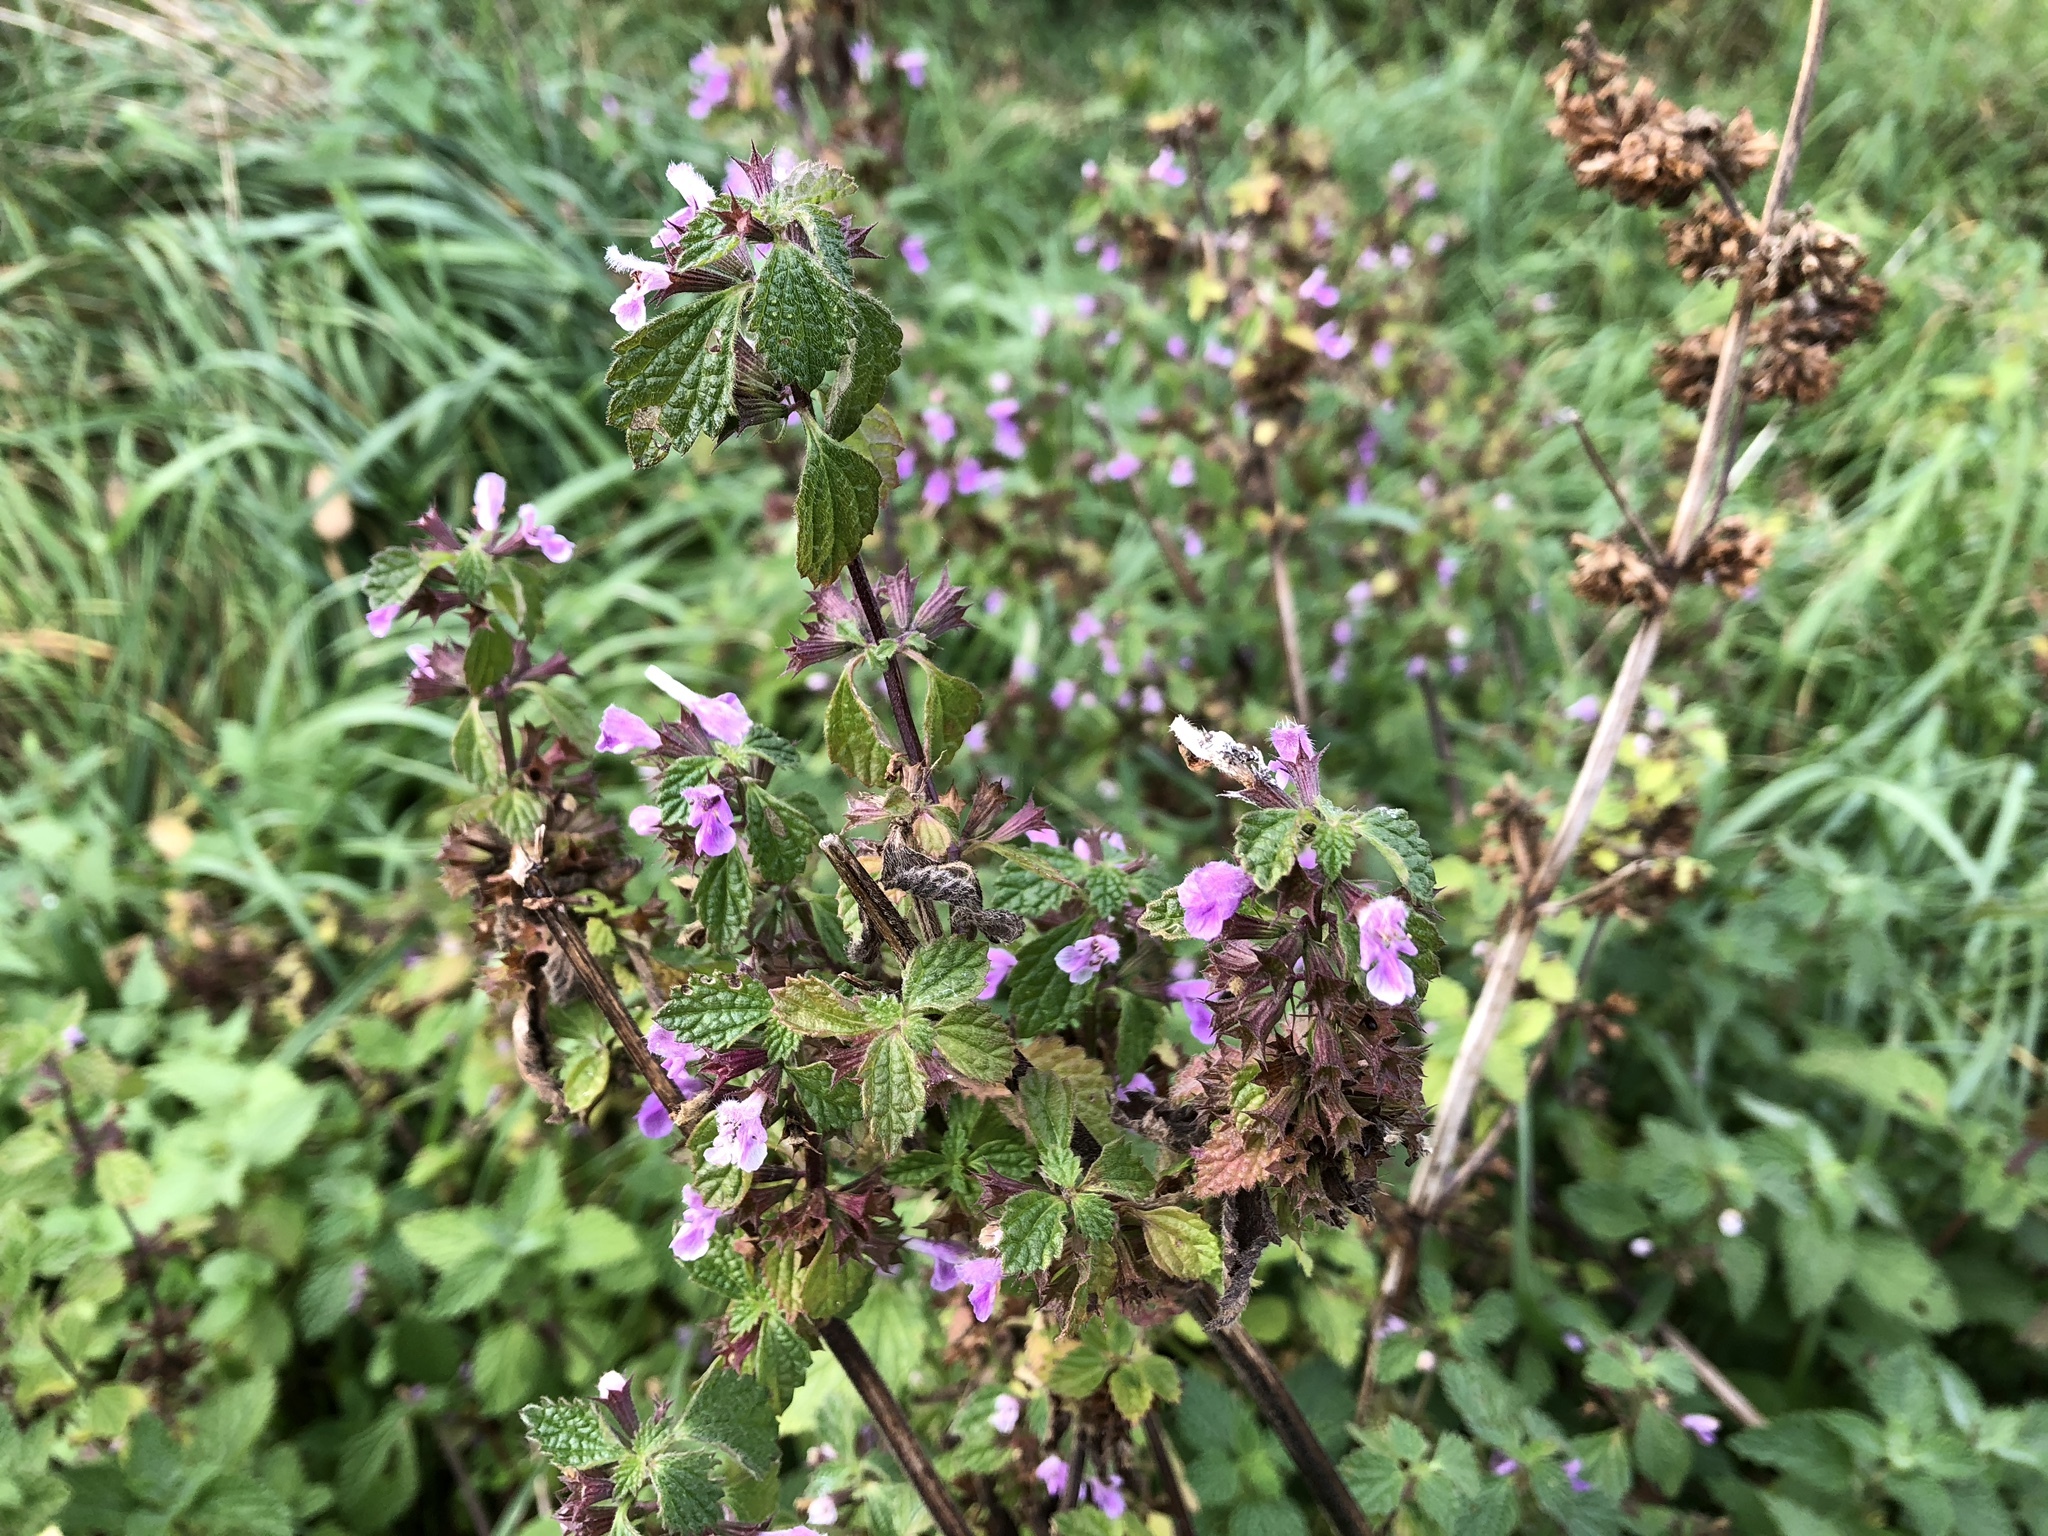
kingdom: Plantae
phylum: Tracheophyta
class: Magnoliopsida
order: Lamiales
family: Lamiaceae
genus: Ballota
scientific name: Ballota nigra
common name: Black horehound
